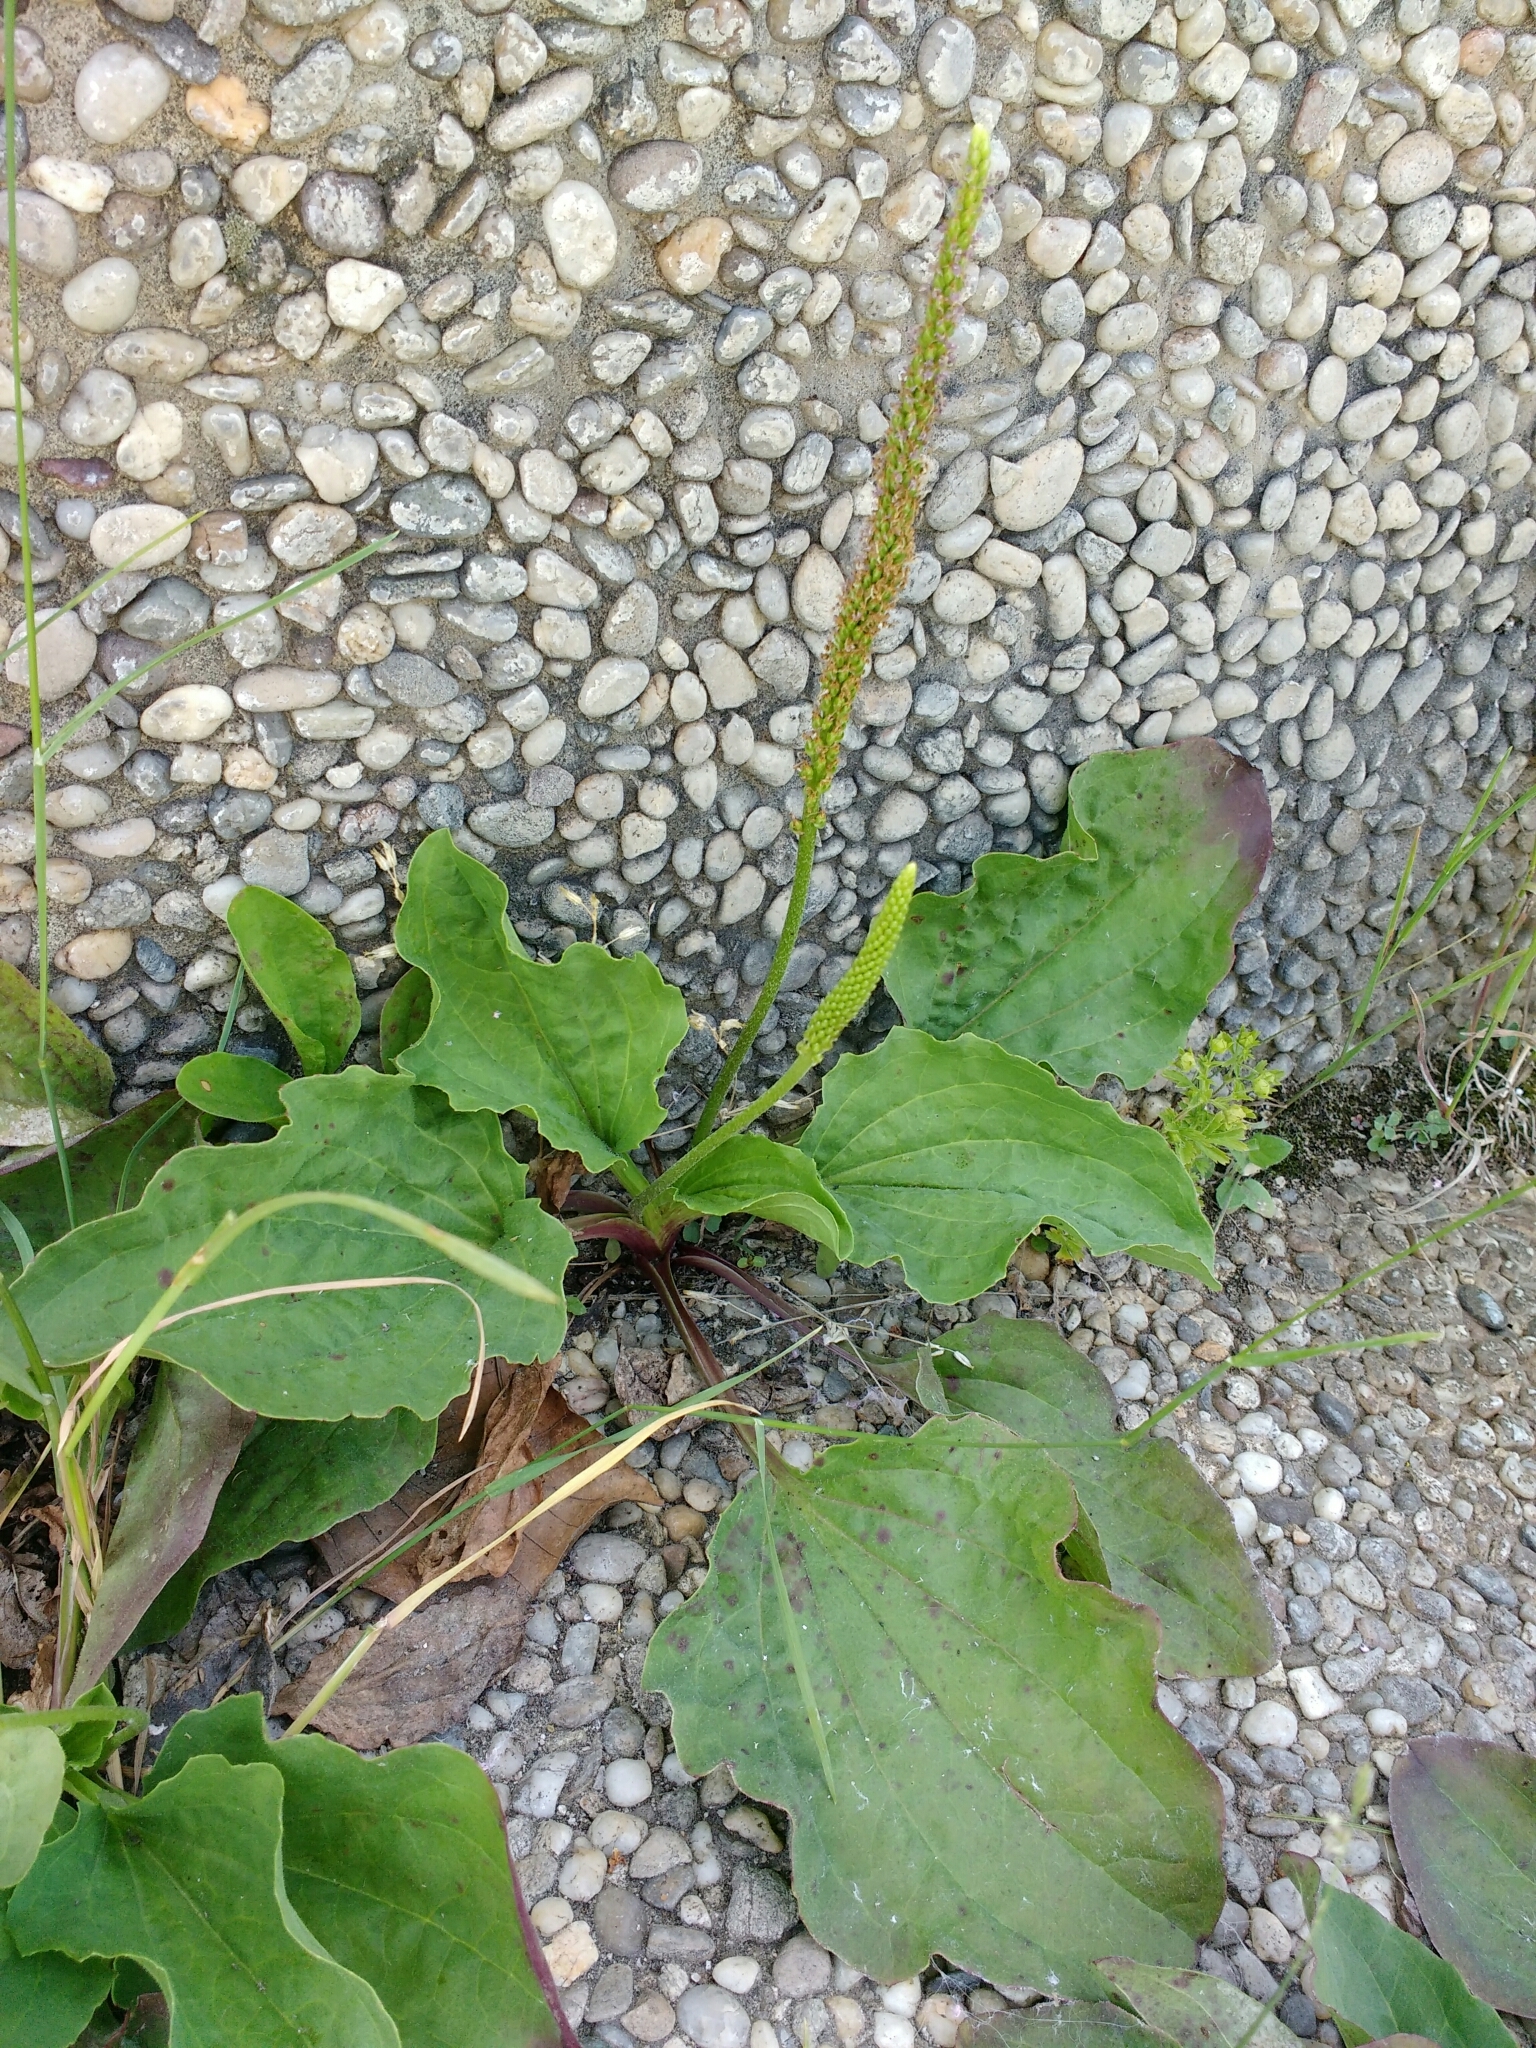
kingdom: Plantae
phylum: Tracheophyta
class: Magnoliopsida
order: Lamiales
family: Plantaginaceae
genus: Plantago
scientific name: Plantago major
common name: Common plantain
